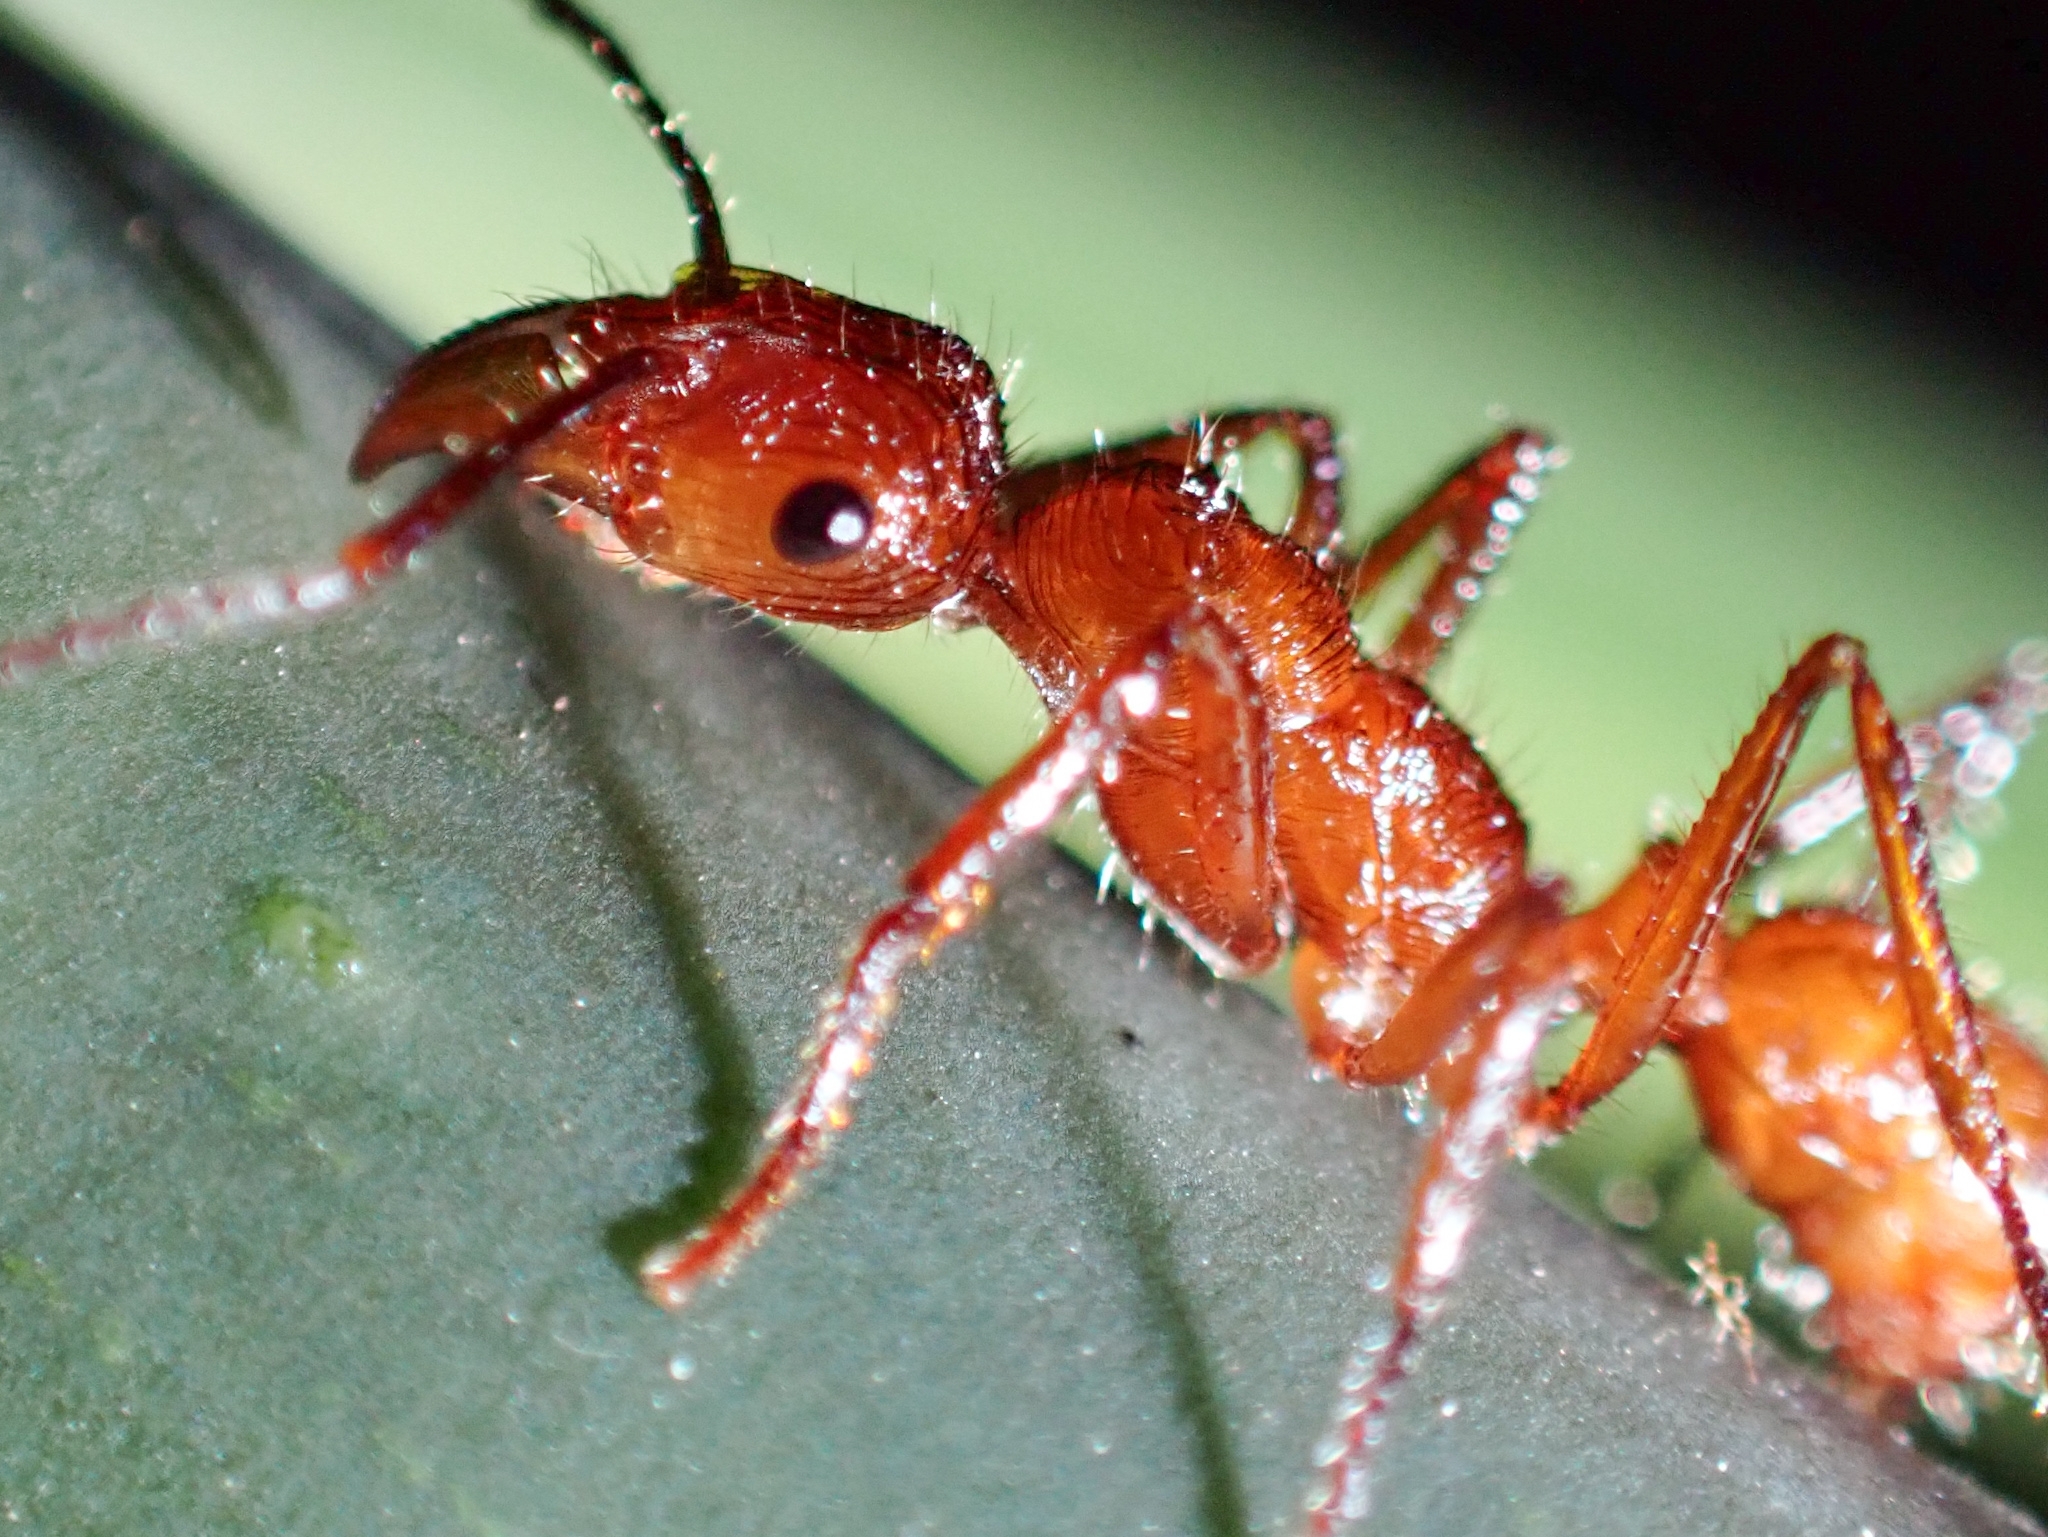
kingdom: Animalia
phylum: Arthropoda
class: Insecta
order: Hymenoptera
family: Formicidae
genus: Ectatomma
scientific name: Ectatomma tuberculatum
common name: Ant
